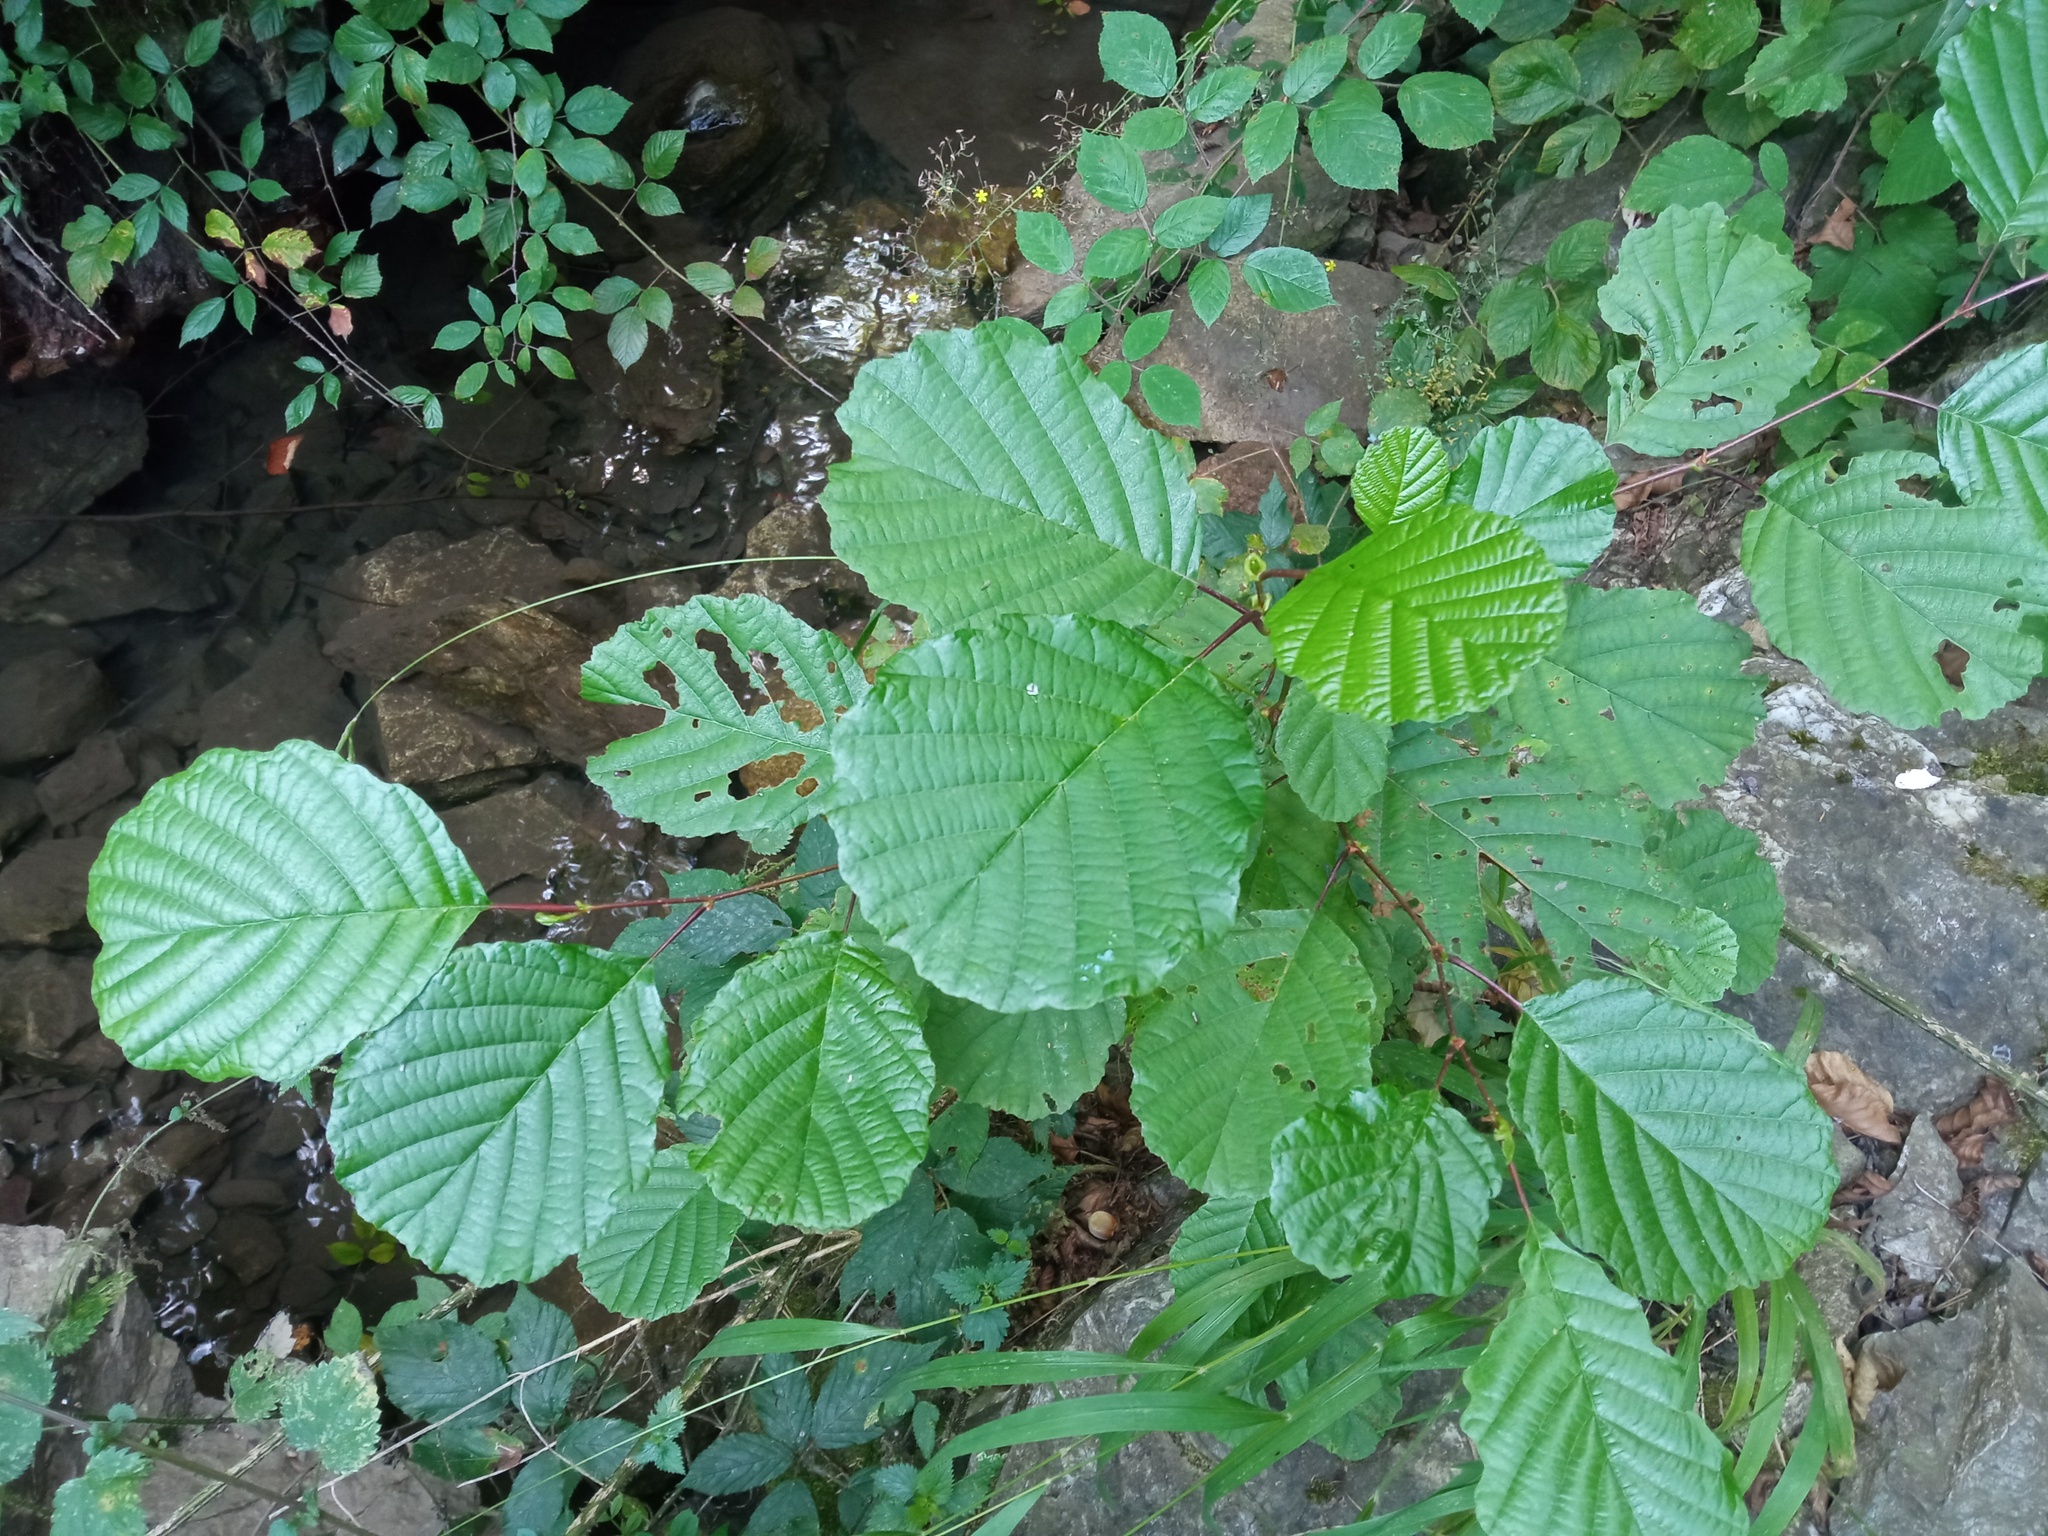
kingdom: Plantae
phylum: Tracheophyta
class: Magnoliopsida
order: Fagales
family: Betulaceae
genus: Alnus
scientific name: Alnus glutinosa
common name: Black alder
